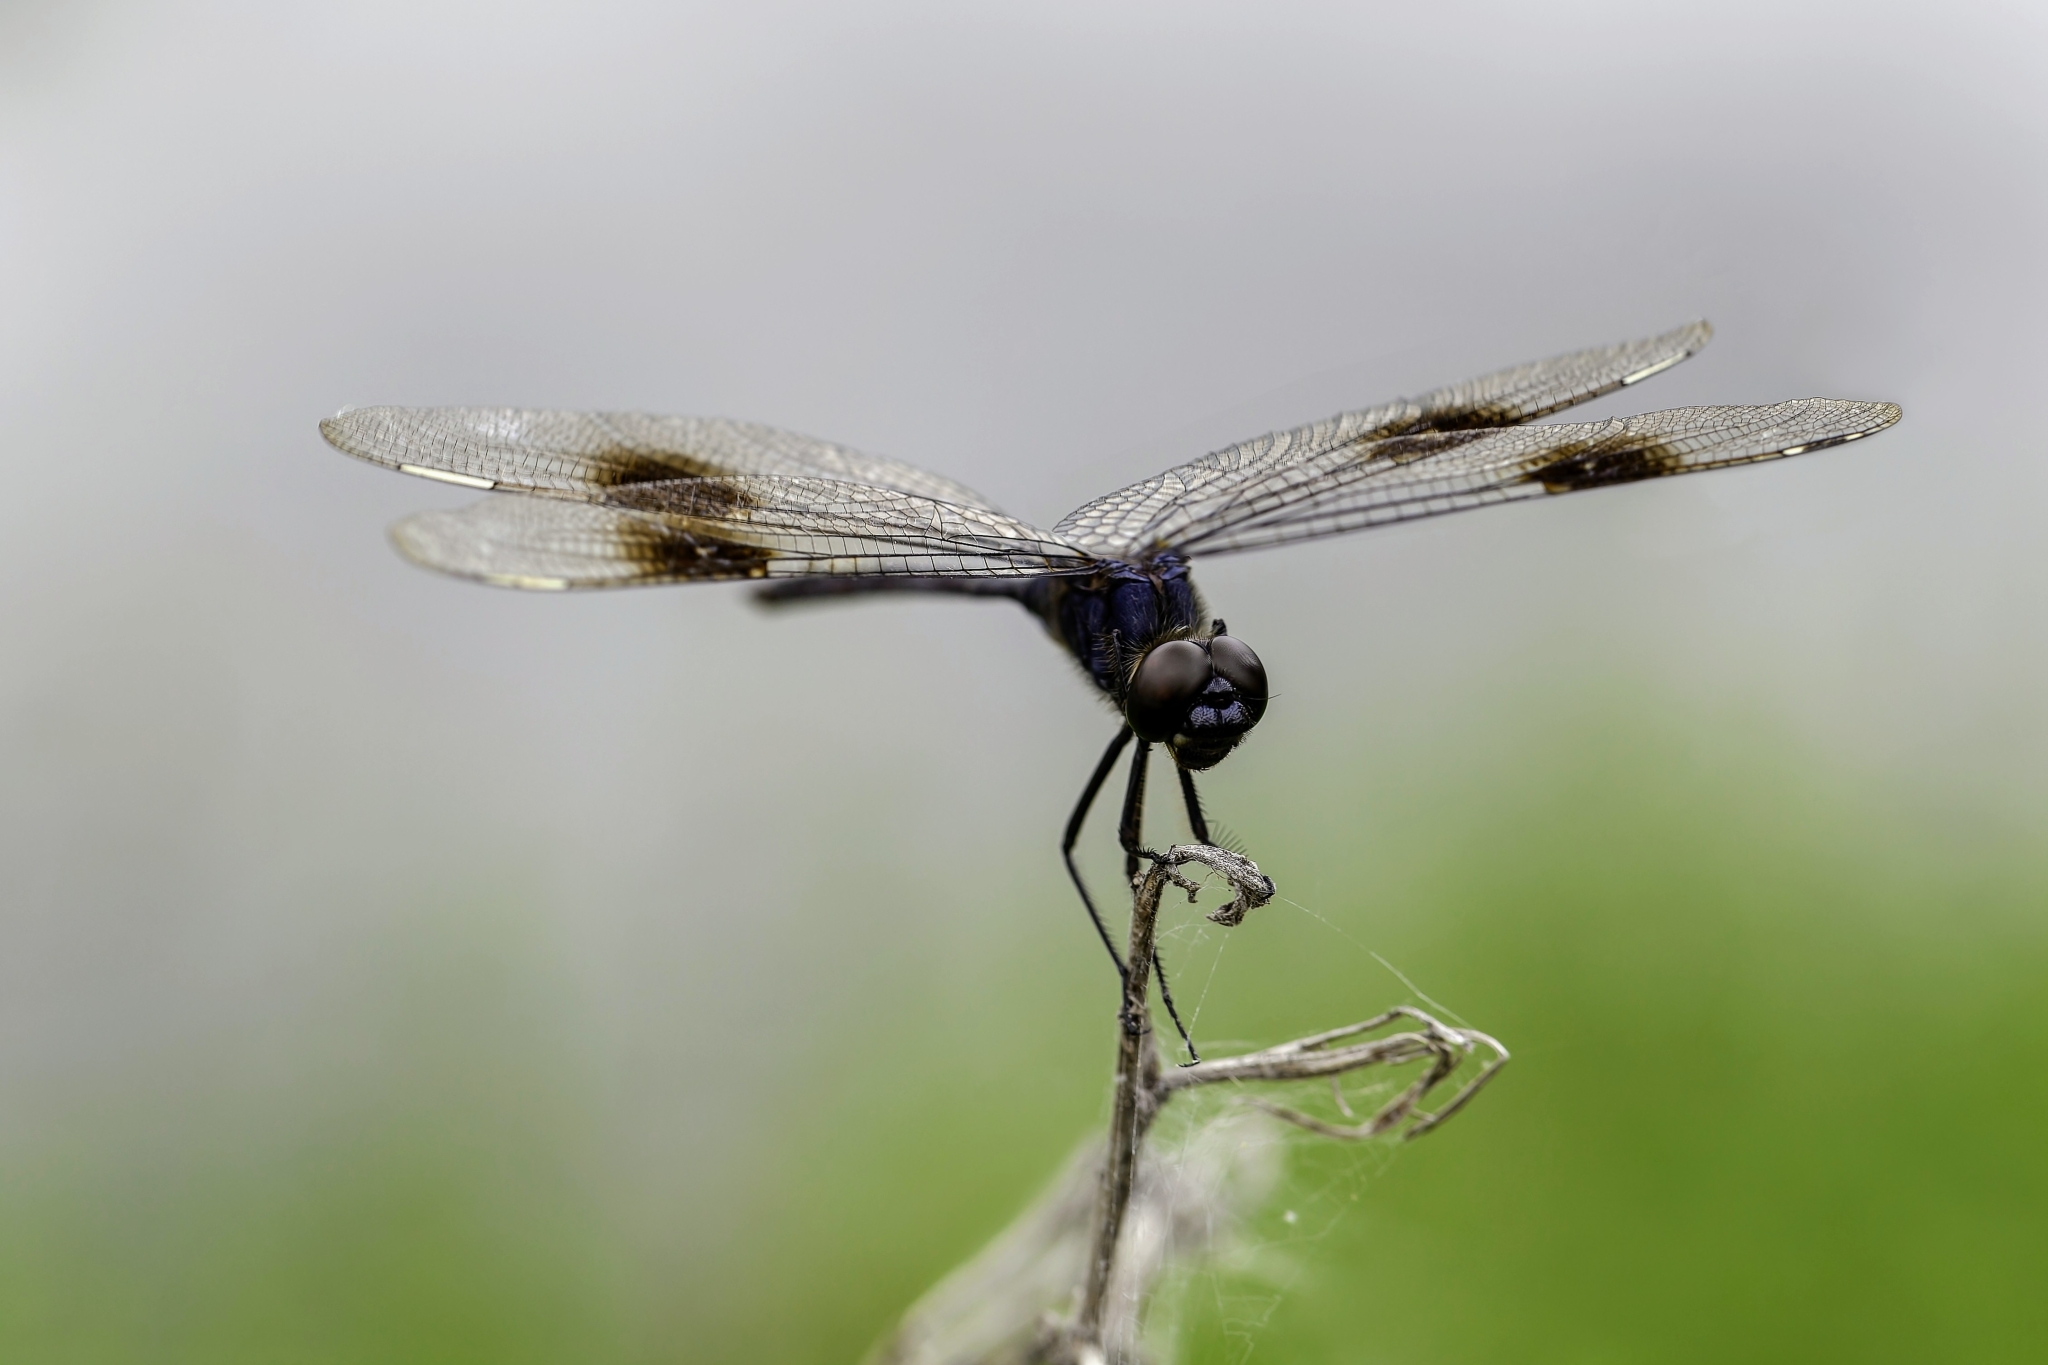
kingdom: Animalia
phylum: Arthropoda
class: Insecta
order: Odonata
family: Libellulidae
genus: Brachymesia
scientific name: Brachymesia gravida
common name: Four-spotted pennant
